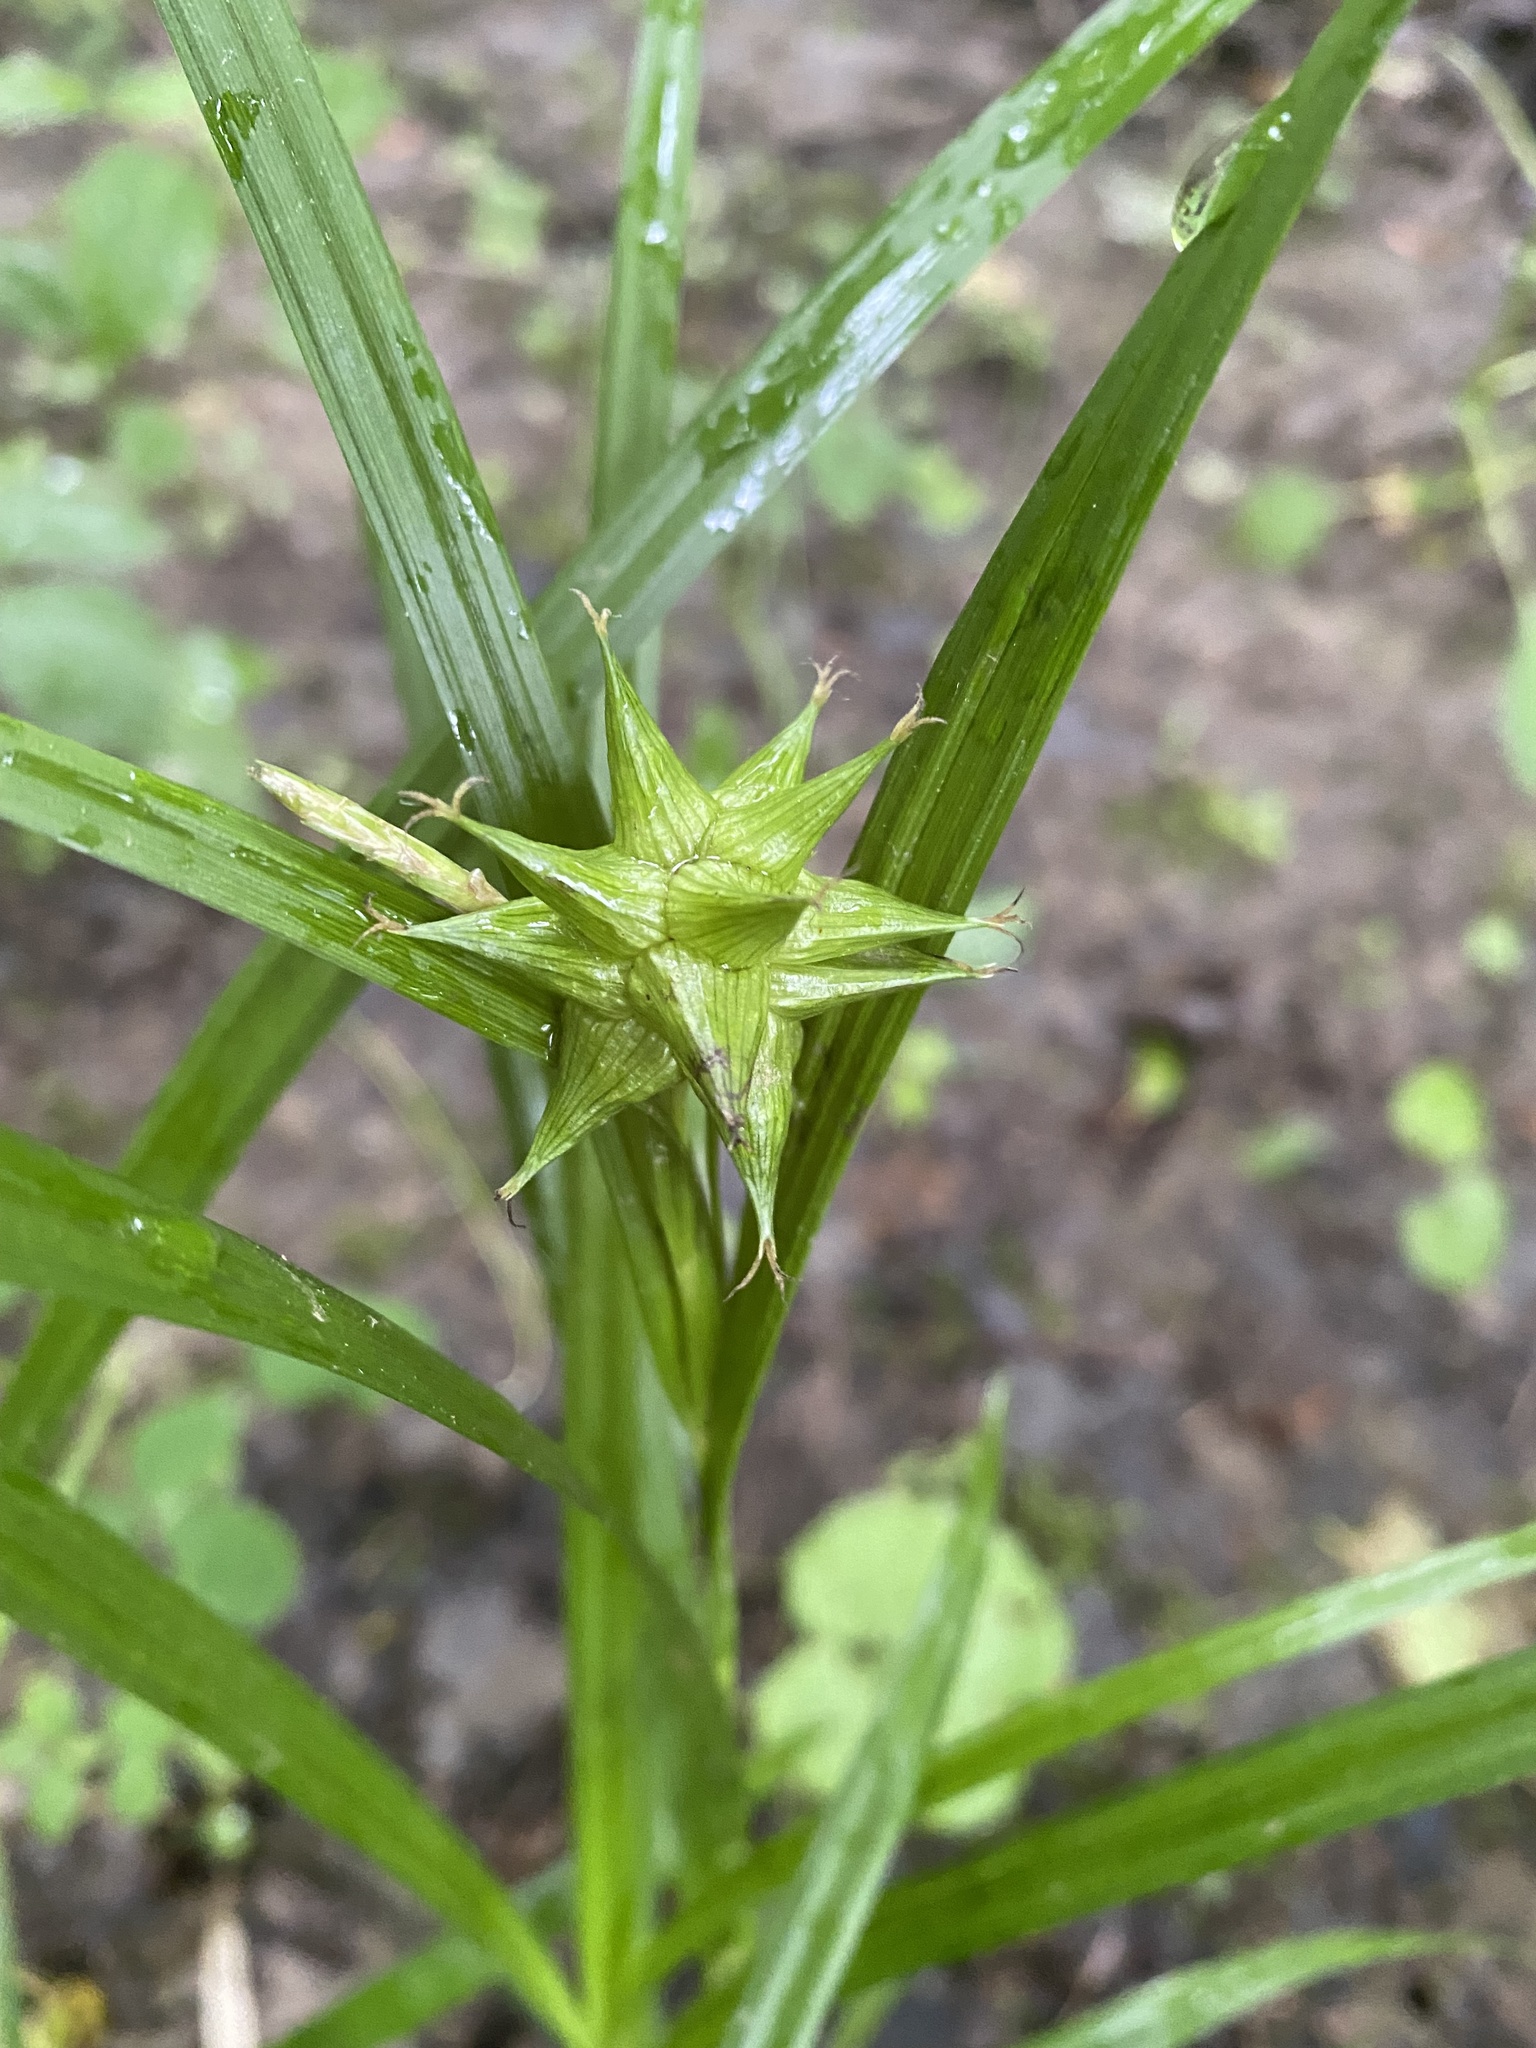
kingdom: Plantae
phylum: Tracheophyta
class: Liliopsida
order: Poales
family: Cyperaceae
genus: Carex
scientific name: Carex grayi
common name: Asa gray's sedge
